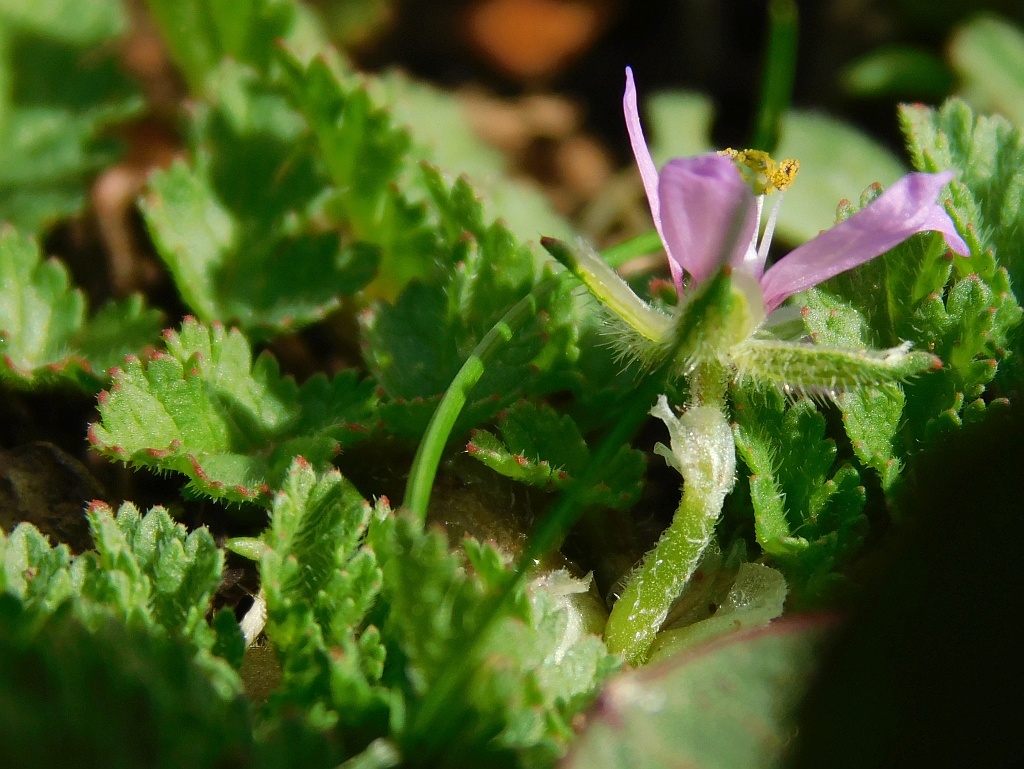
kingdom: Plantae
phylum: Tracheophyta
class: Magnoliopsida
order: Geraniales
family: Geraniaceae
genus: Erodium
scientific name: Erodium moschatum
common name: Musk stork's-bill
